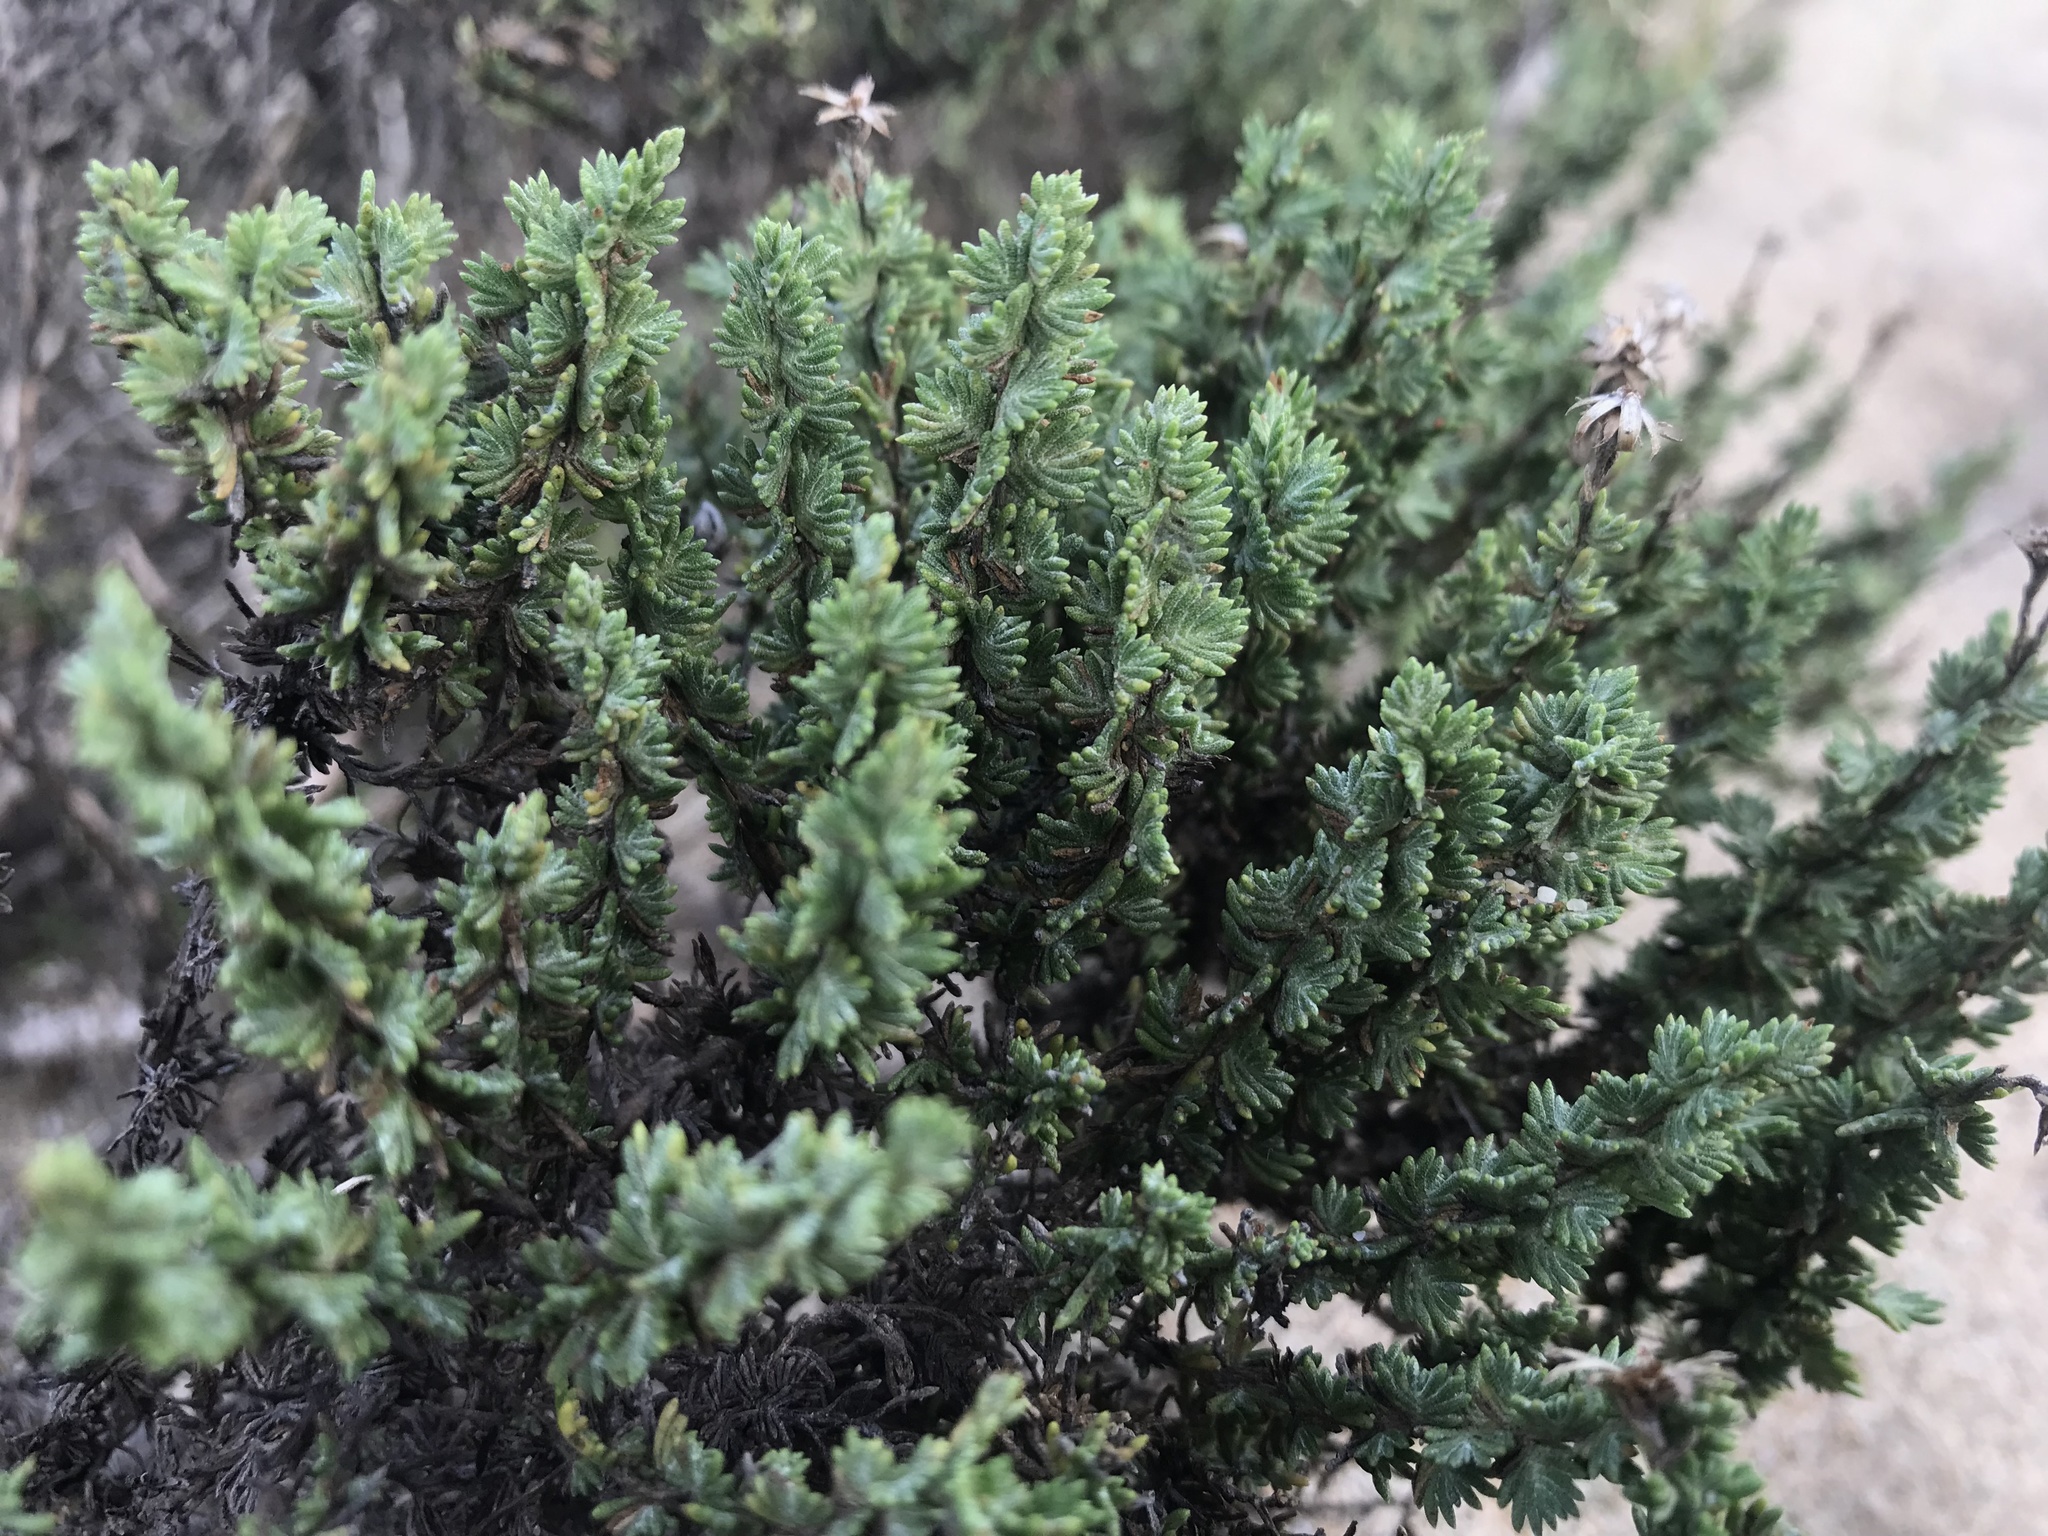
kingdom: Plantae
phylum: Tracheophyta
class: Magnoliopsida
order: Asterales
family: Asteraceae
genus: Ericameria
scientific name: Ericameria ericoides
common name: California goldenbush
